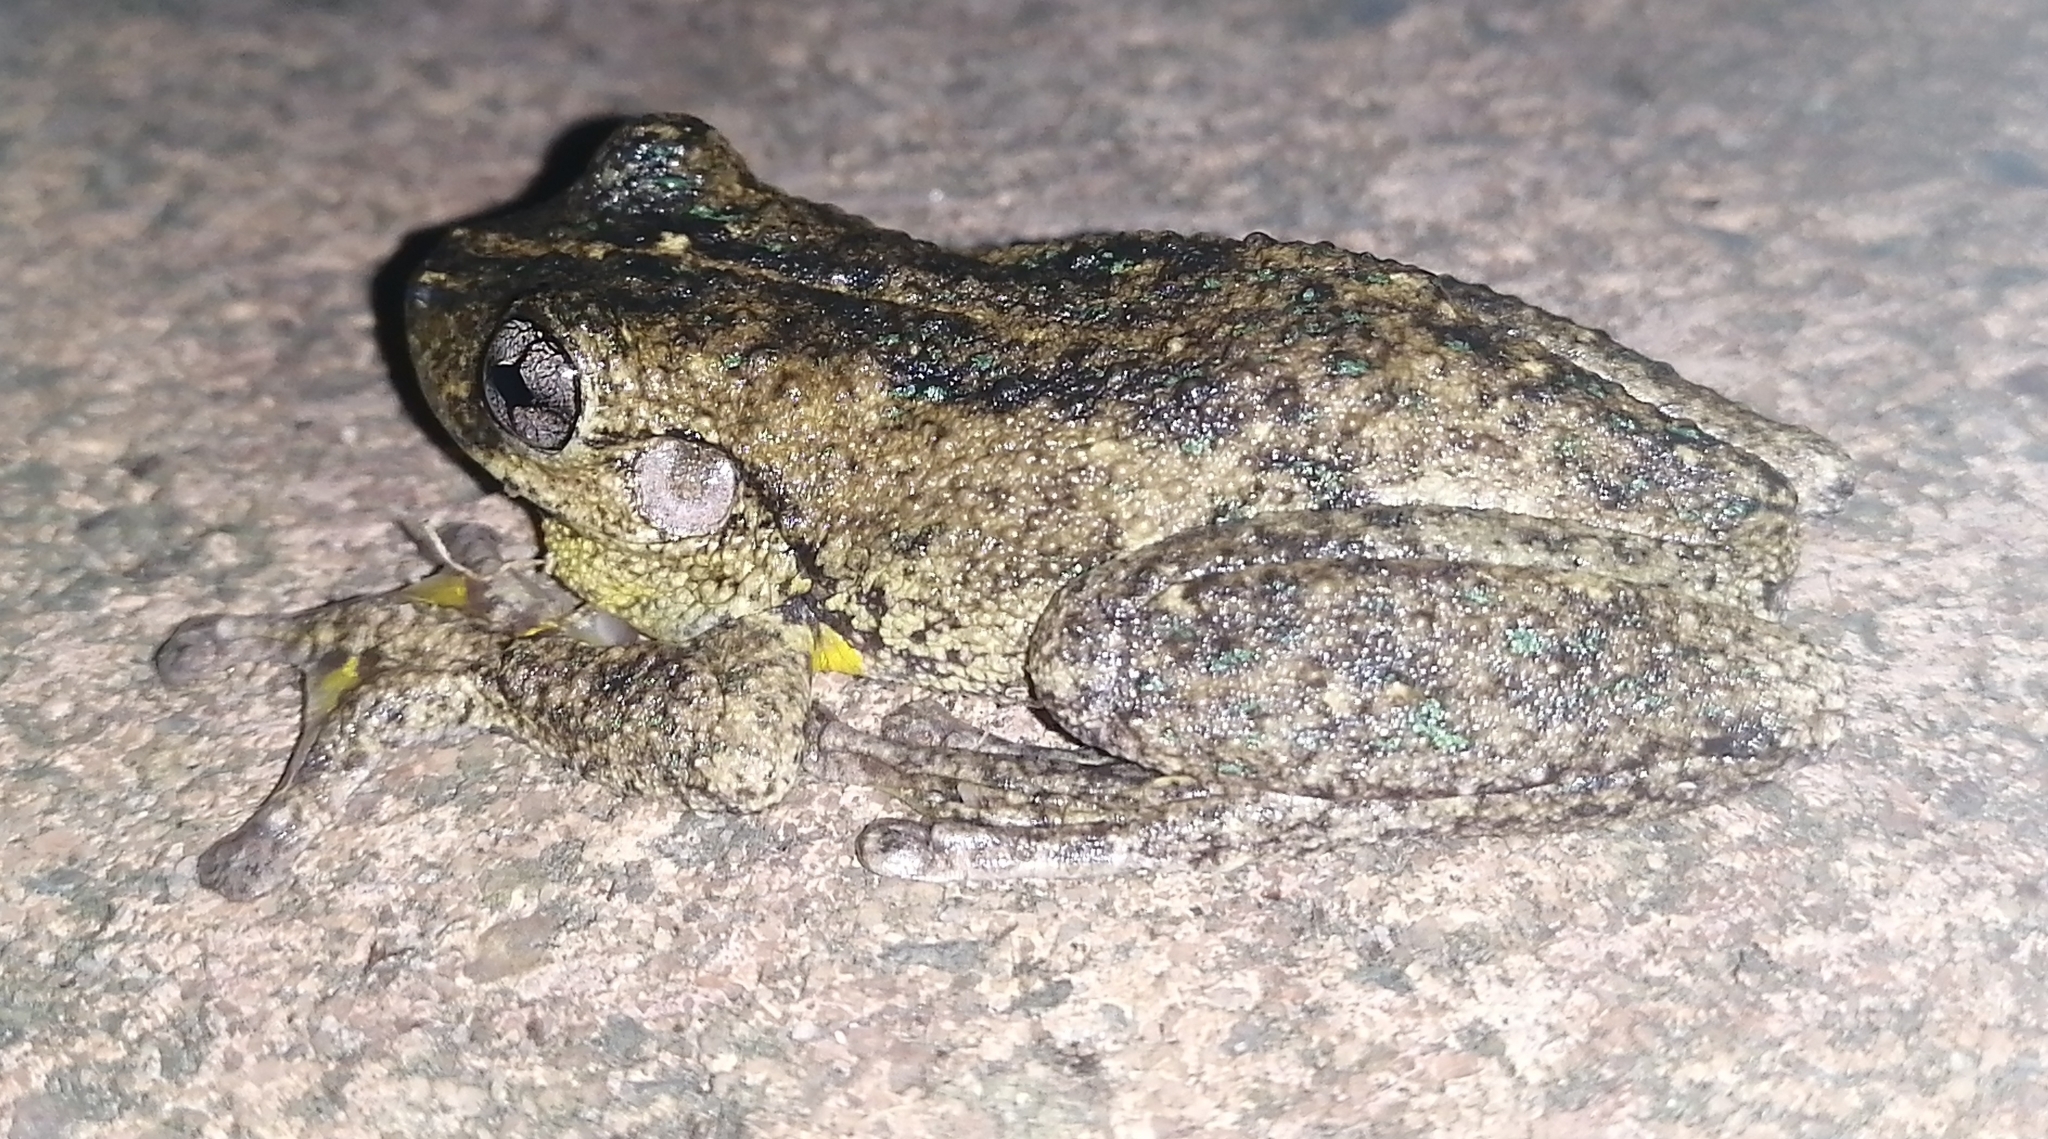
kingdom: Animalia
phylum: Chordata
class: Amphibia
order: Anura
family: Pelodryadidae
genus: Litoria
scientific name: Litoria peronii
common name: Emerald spotted treefrog
